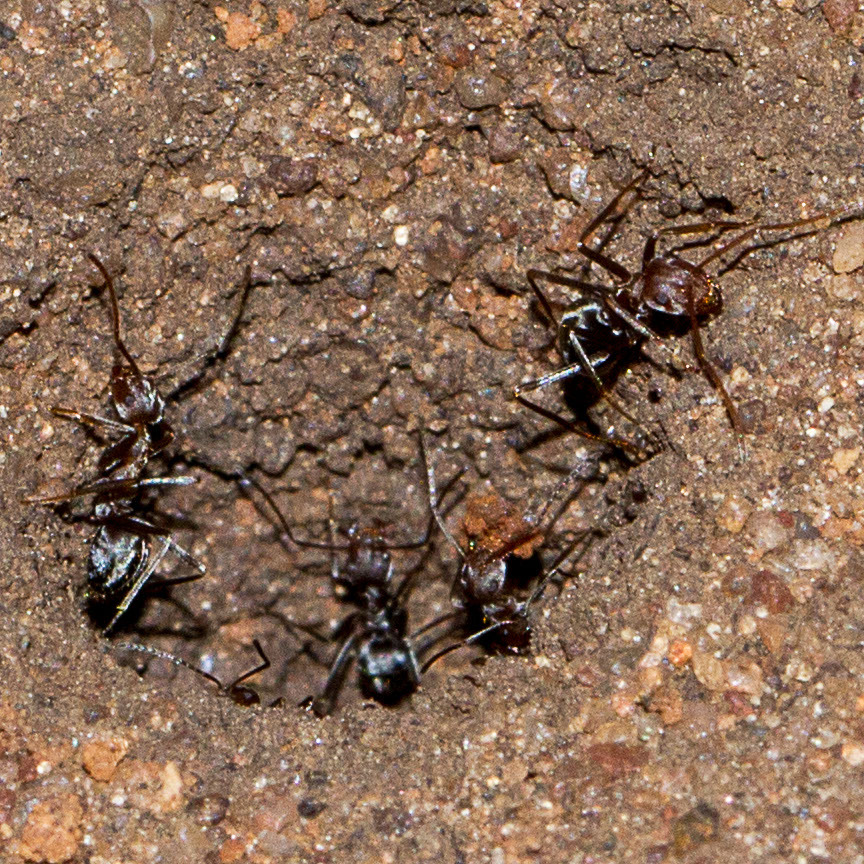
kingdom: Animalia
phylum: Arthropoda
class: Insecta
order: Hymenoptera
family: Formicidae
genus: Anoplolepis
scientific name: Anoplolepis custodiens
